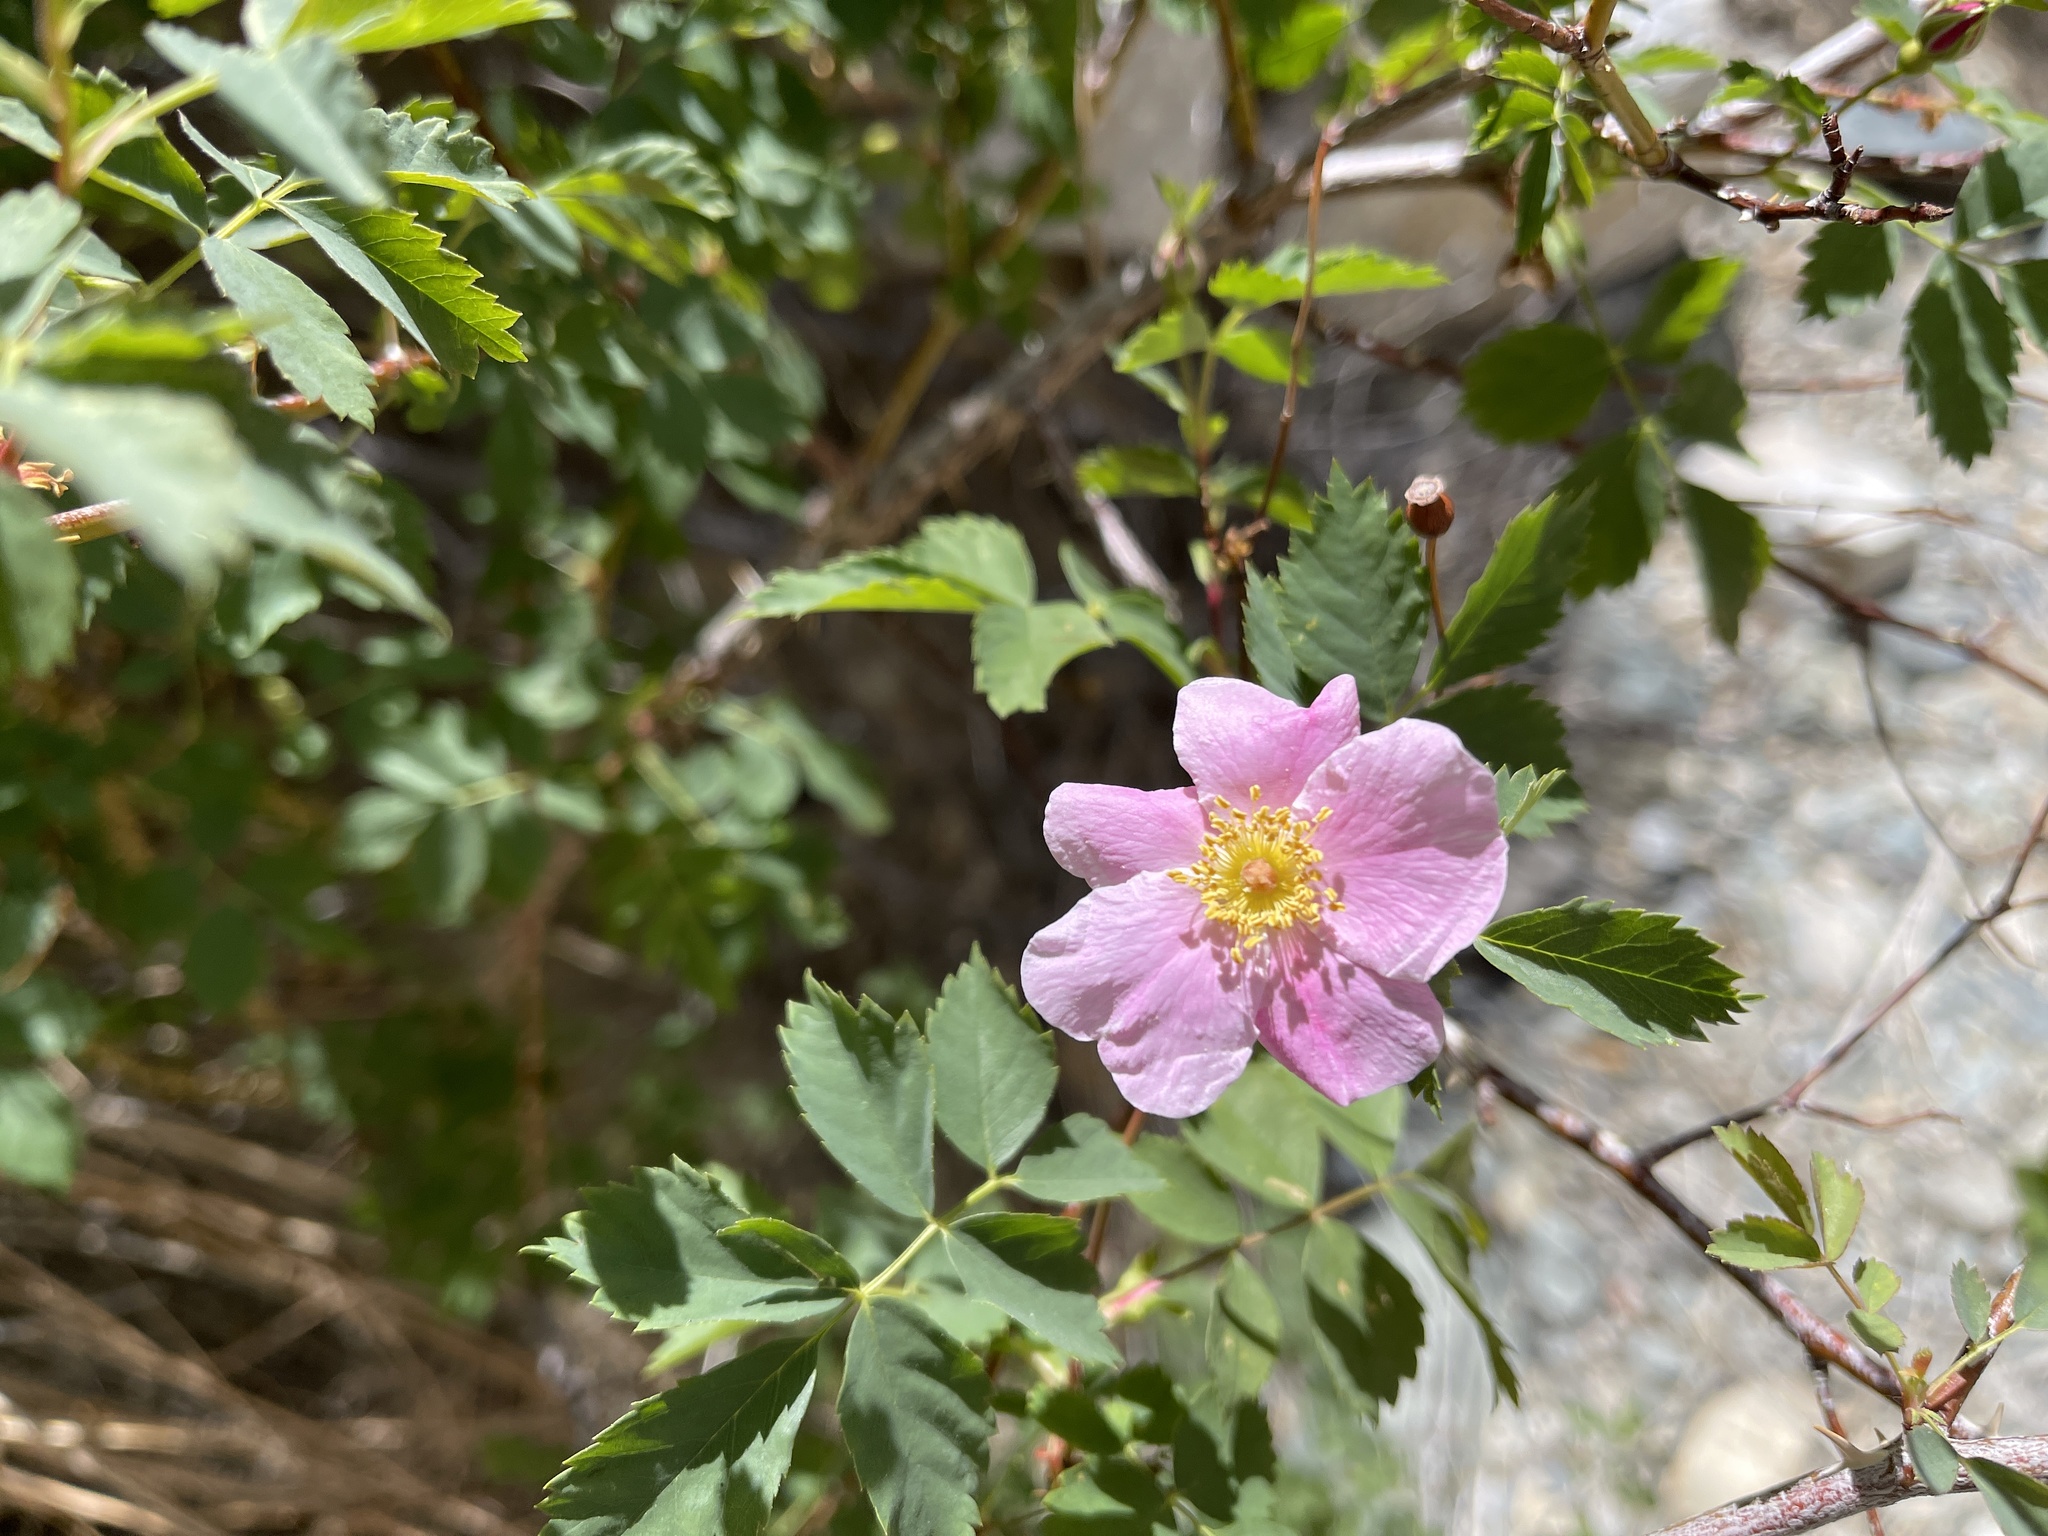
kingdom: Plantae
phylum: Tracheophyta
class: Magnoliopsida
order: Rosales
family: Rosaceae
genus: Rosa
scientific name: Rosa woodsii
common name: Woods's rose
